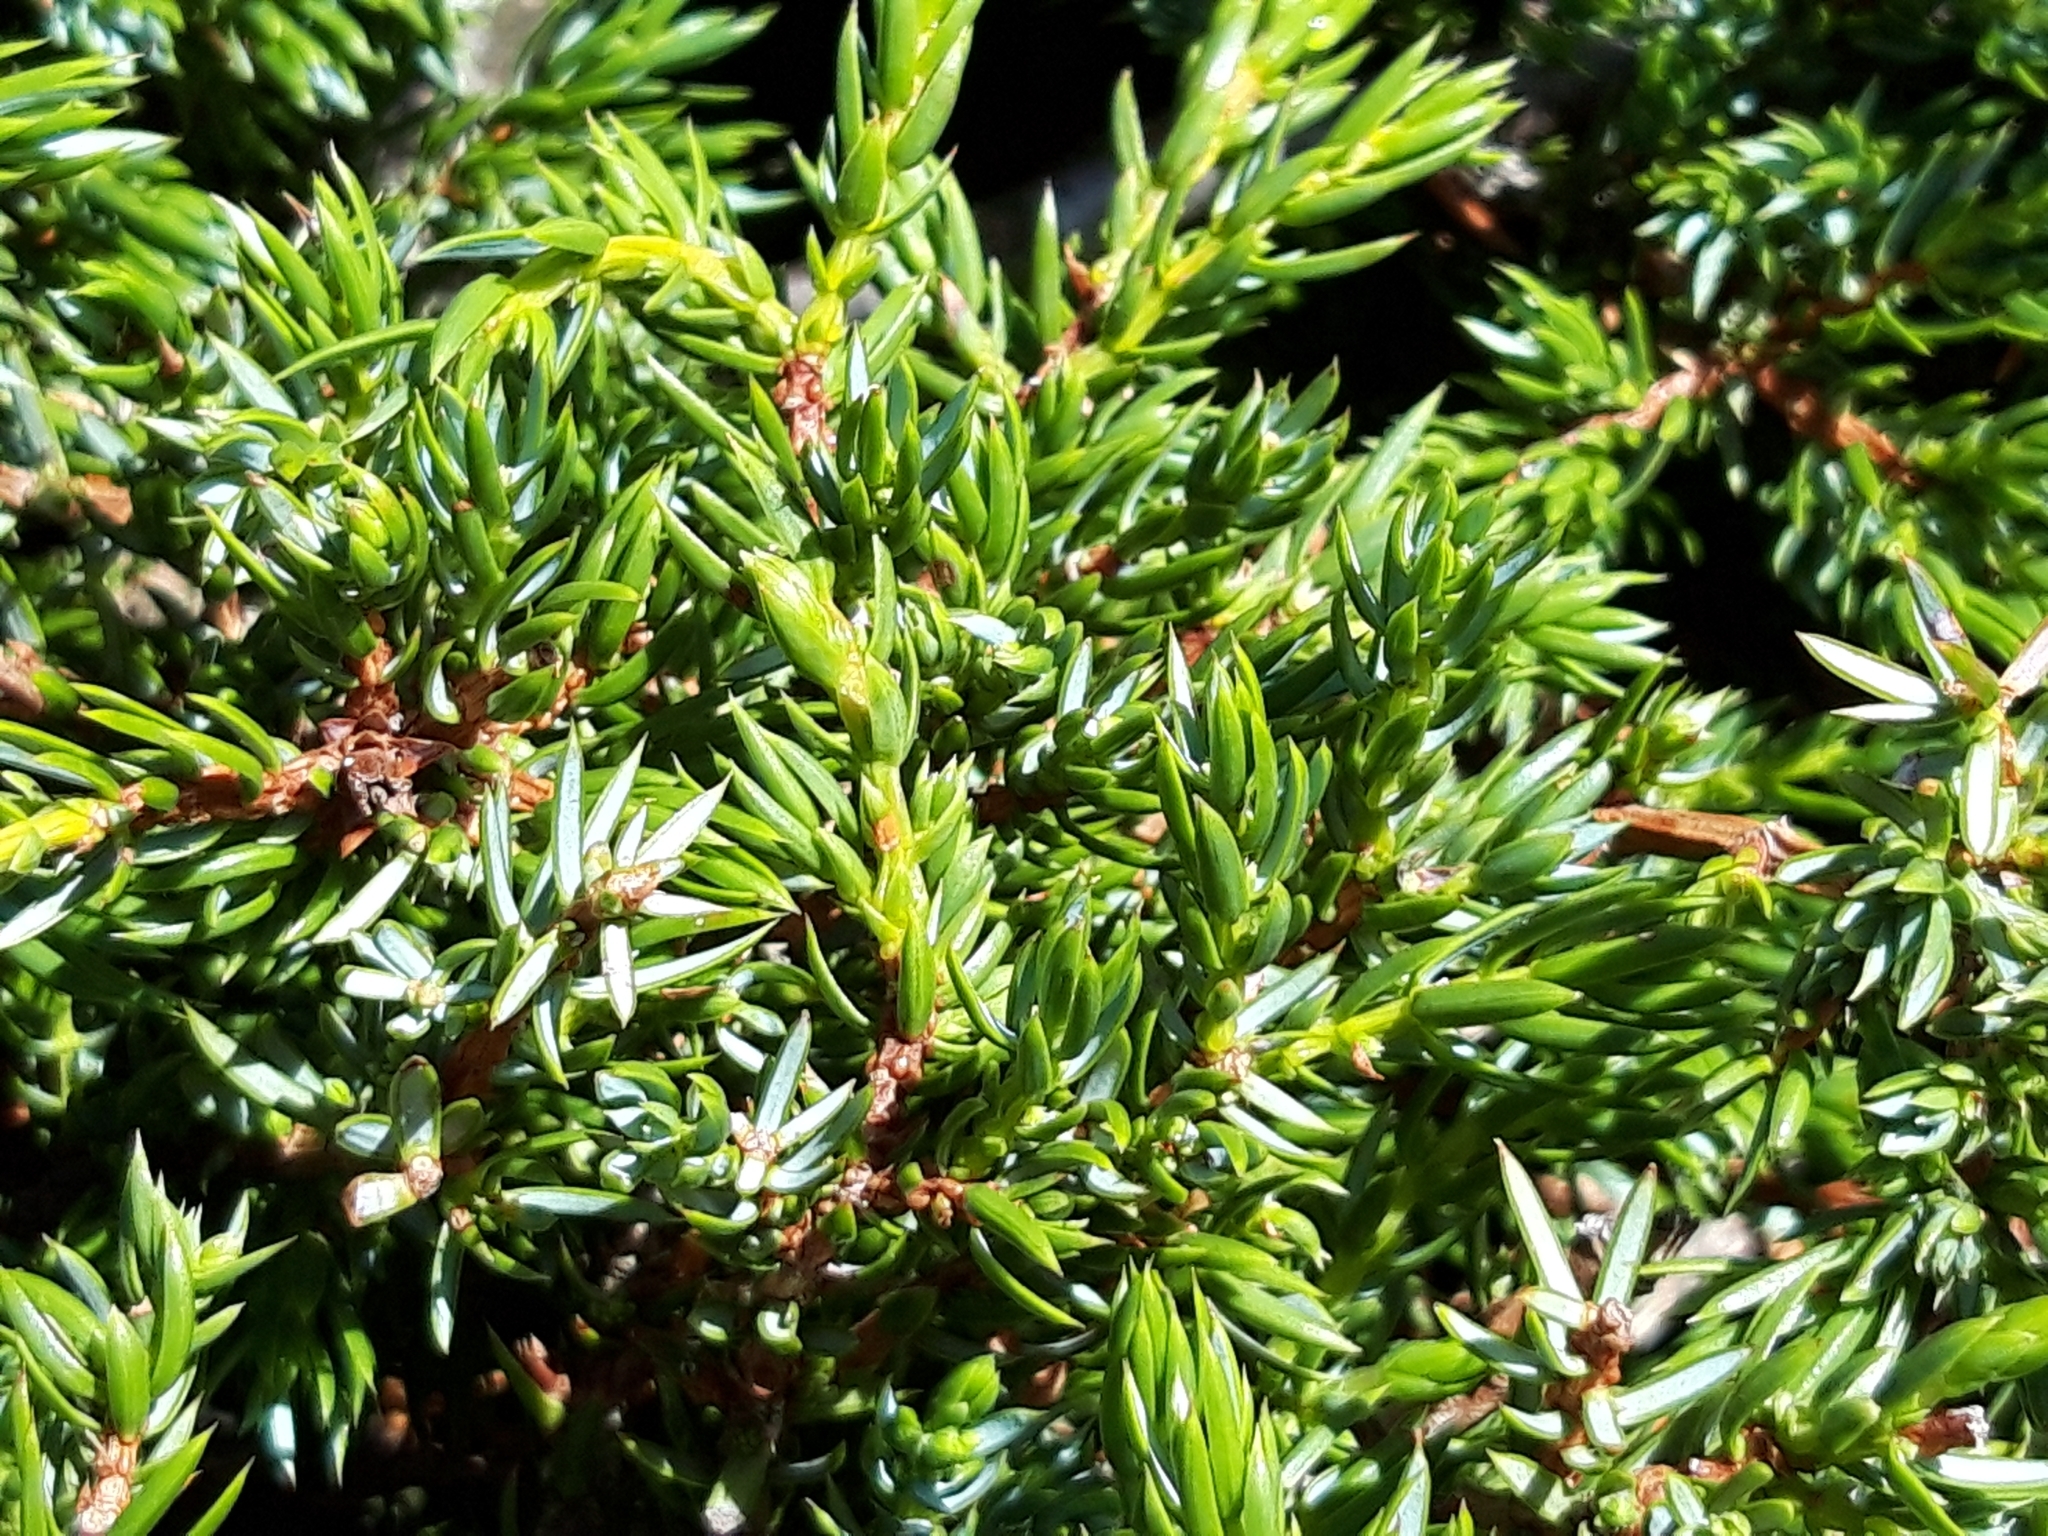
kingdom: Plantae
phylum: Tracheophyta
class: Pinopsida
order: Pinales
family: Cupressaceae
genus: Juniperus
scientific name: Juniperus communis
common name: Common juniper
